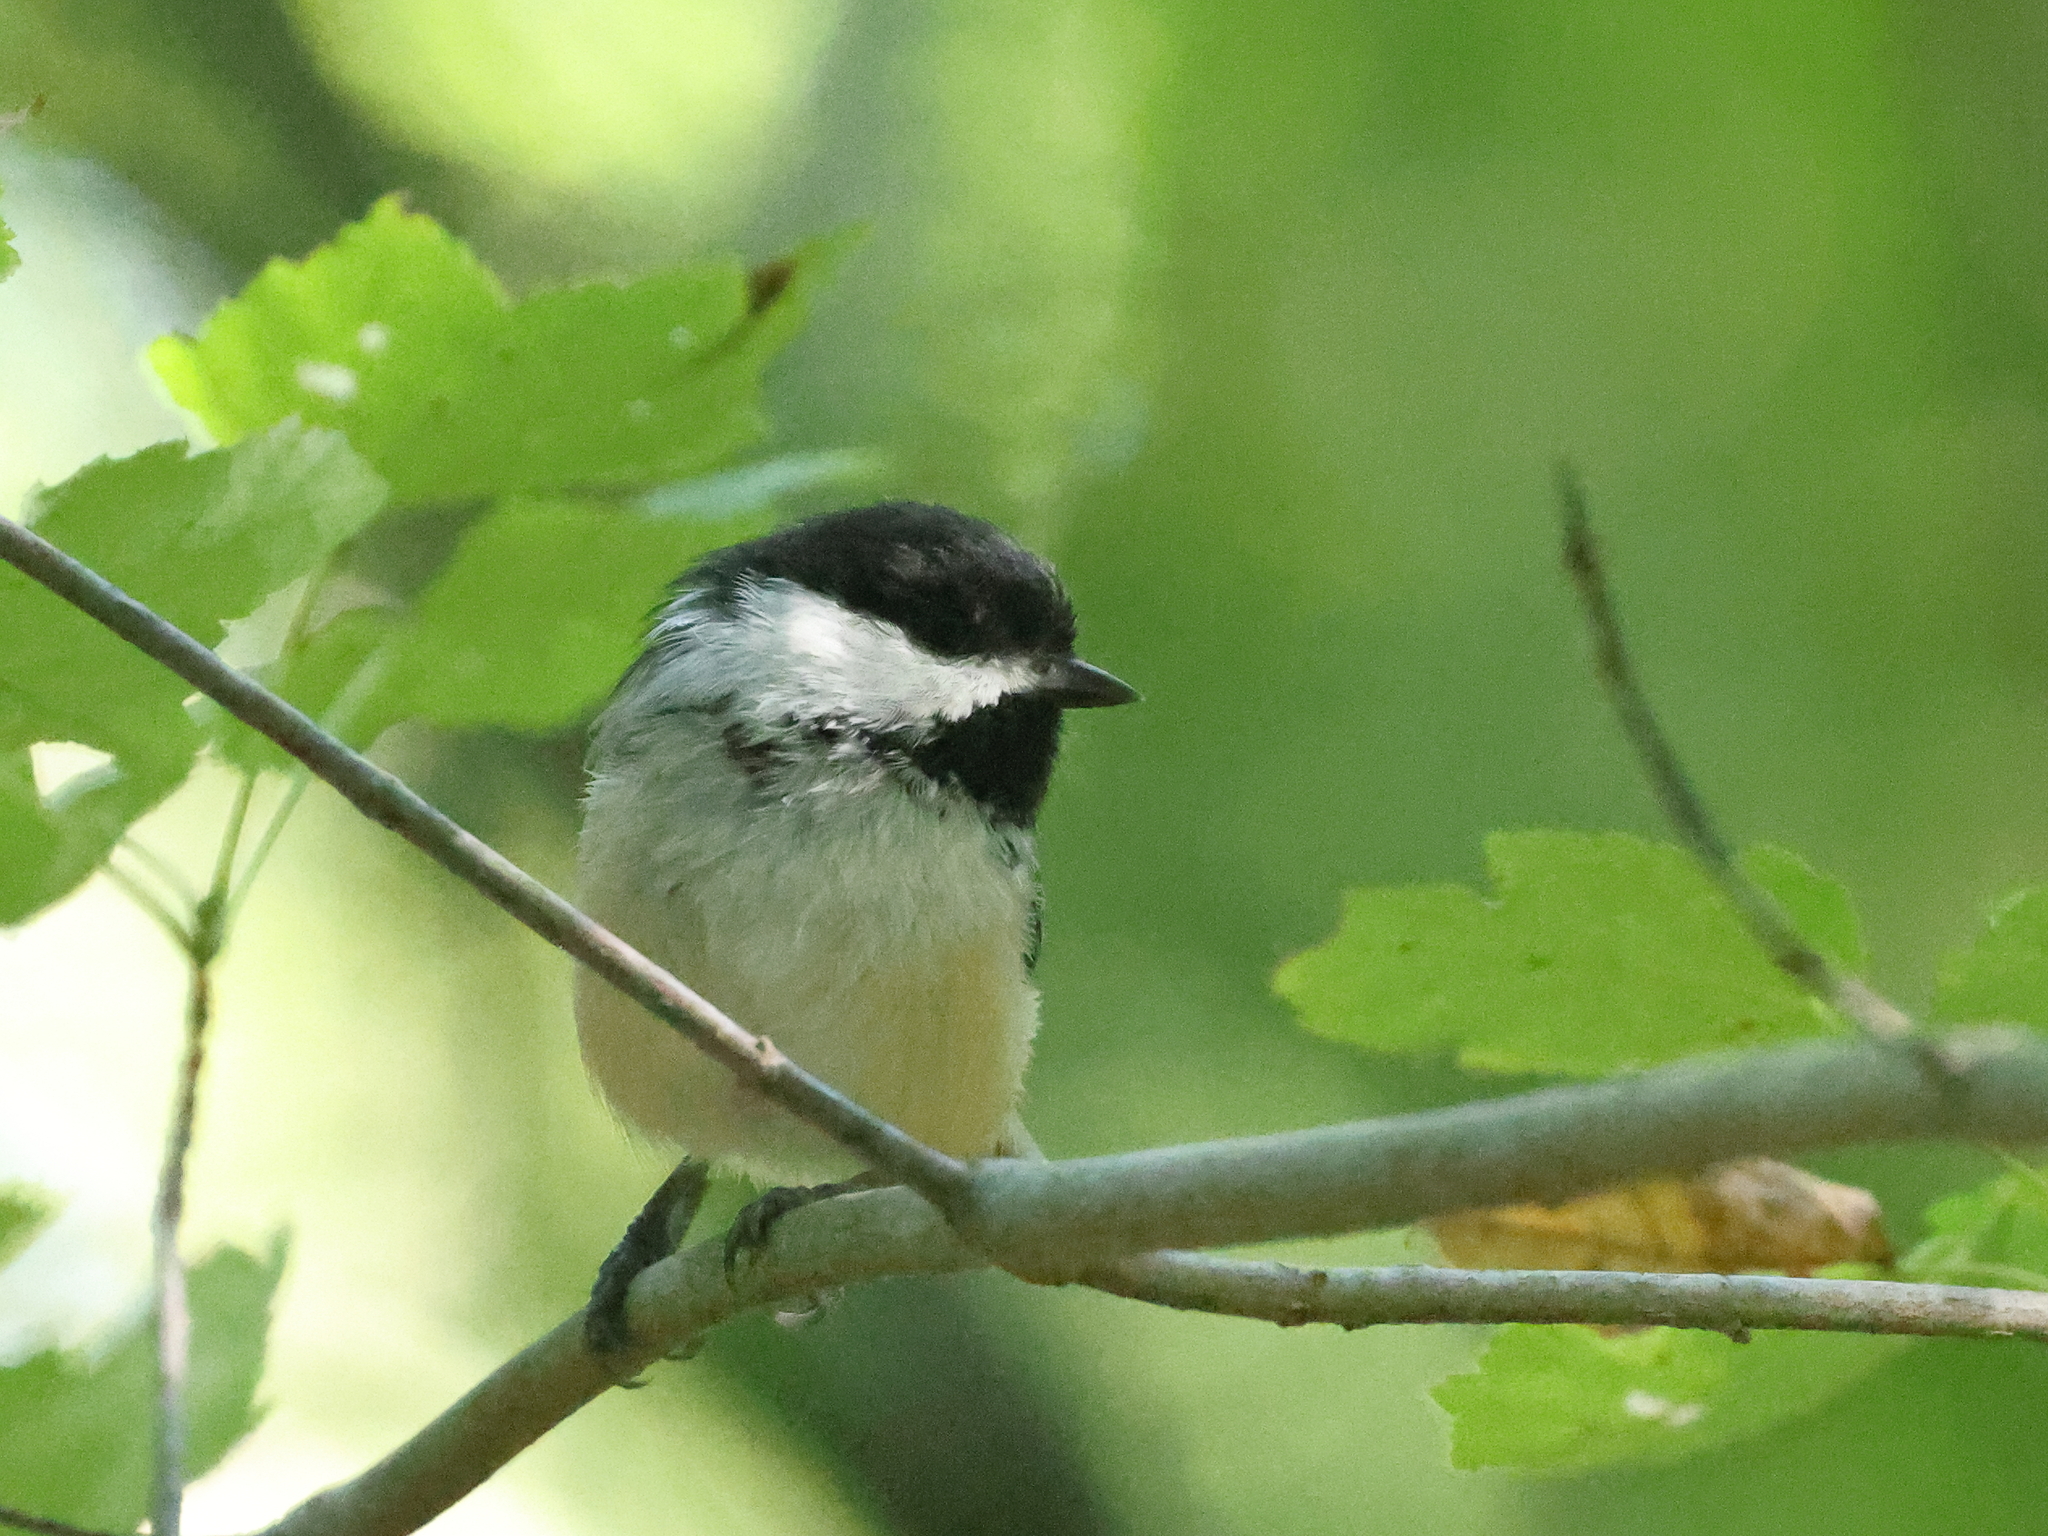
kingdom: Animalia
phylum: Chordata
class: Aves
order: Passeriformes
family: Paridae
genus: Poecile
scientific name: Poecile atricapillus
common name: Black-capped chickadee
